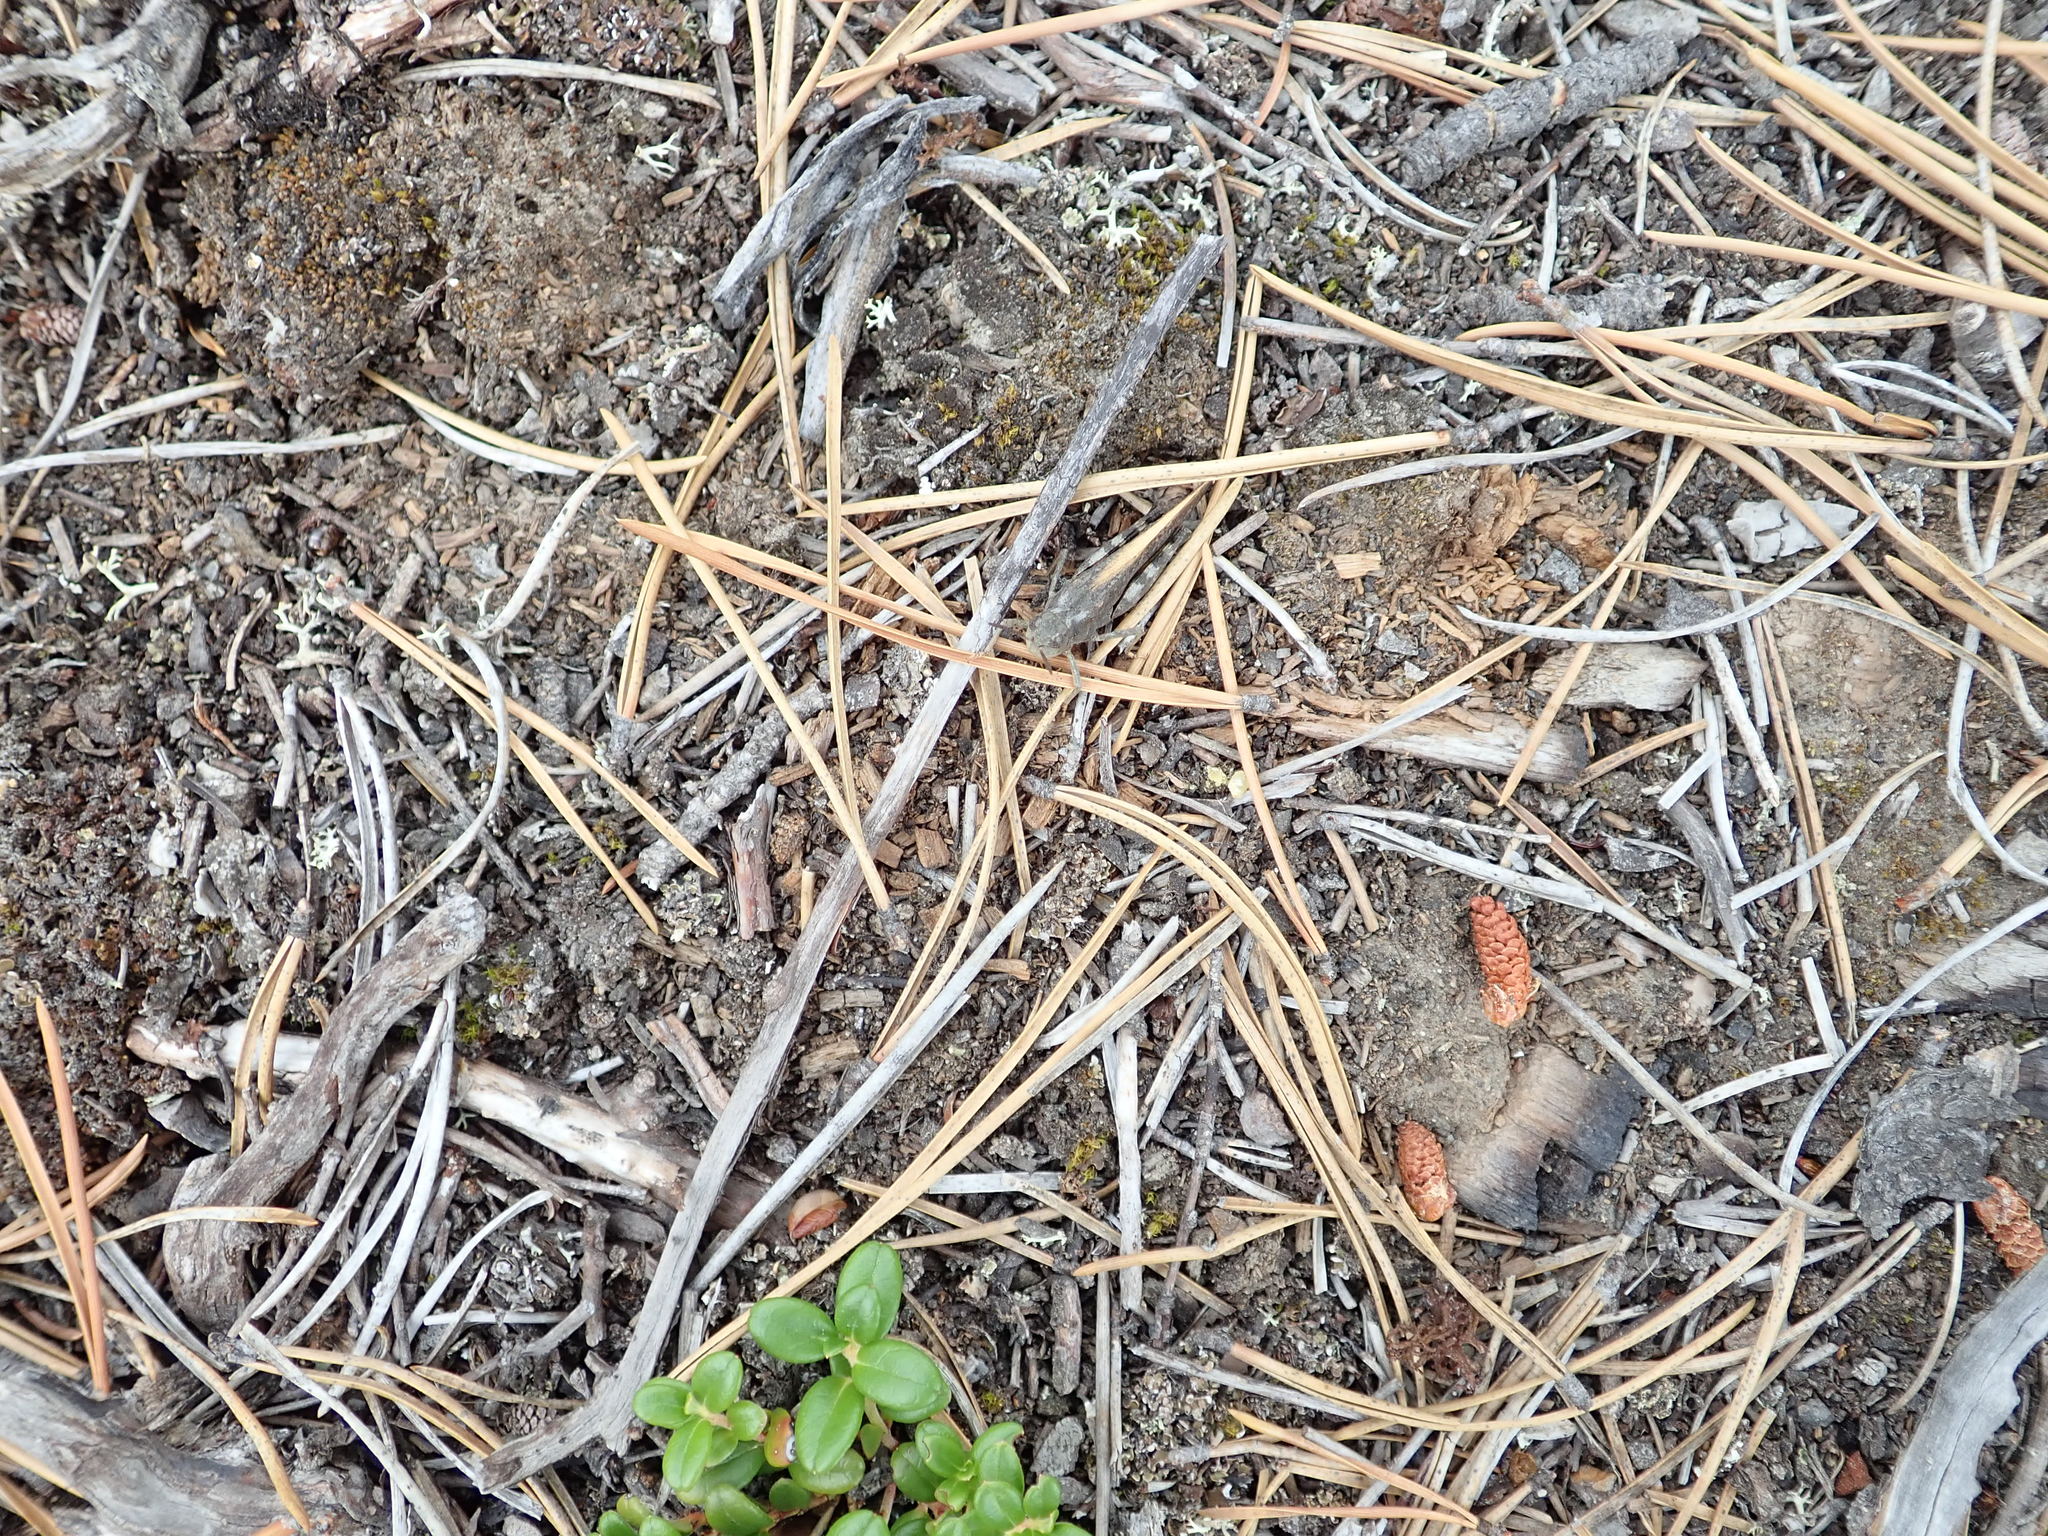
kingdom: Animalia
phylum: Arthropoda
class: Insecta
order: Orthoptera
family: Acrididae
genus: Arphia
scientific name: Arphia conspersa
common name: Speckle-winged rangeland grasshopper
